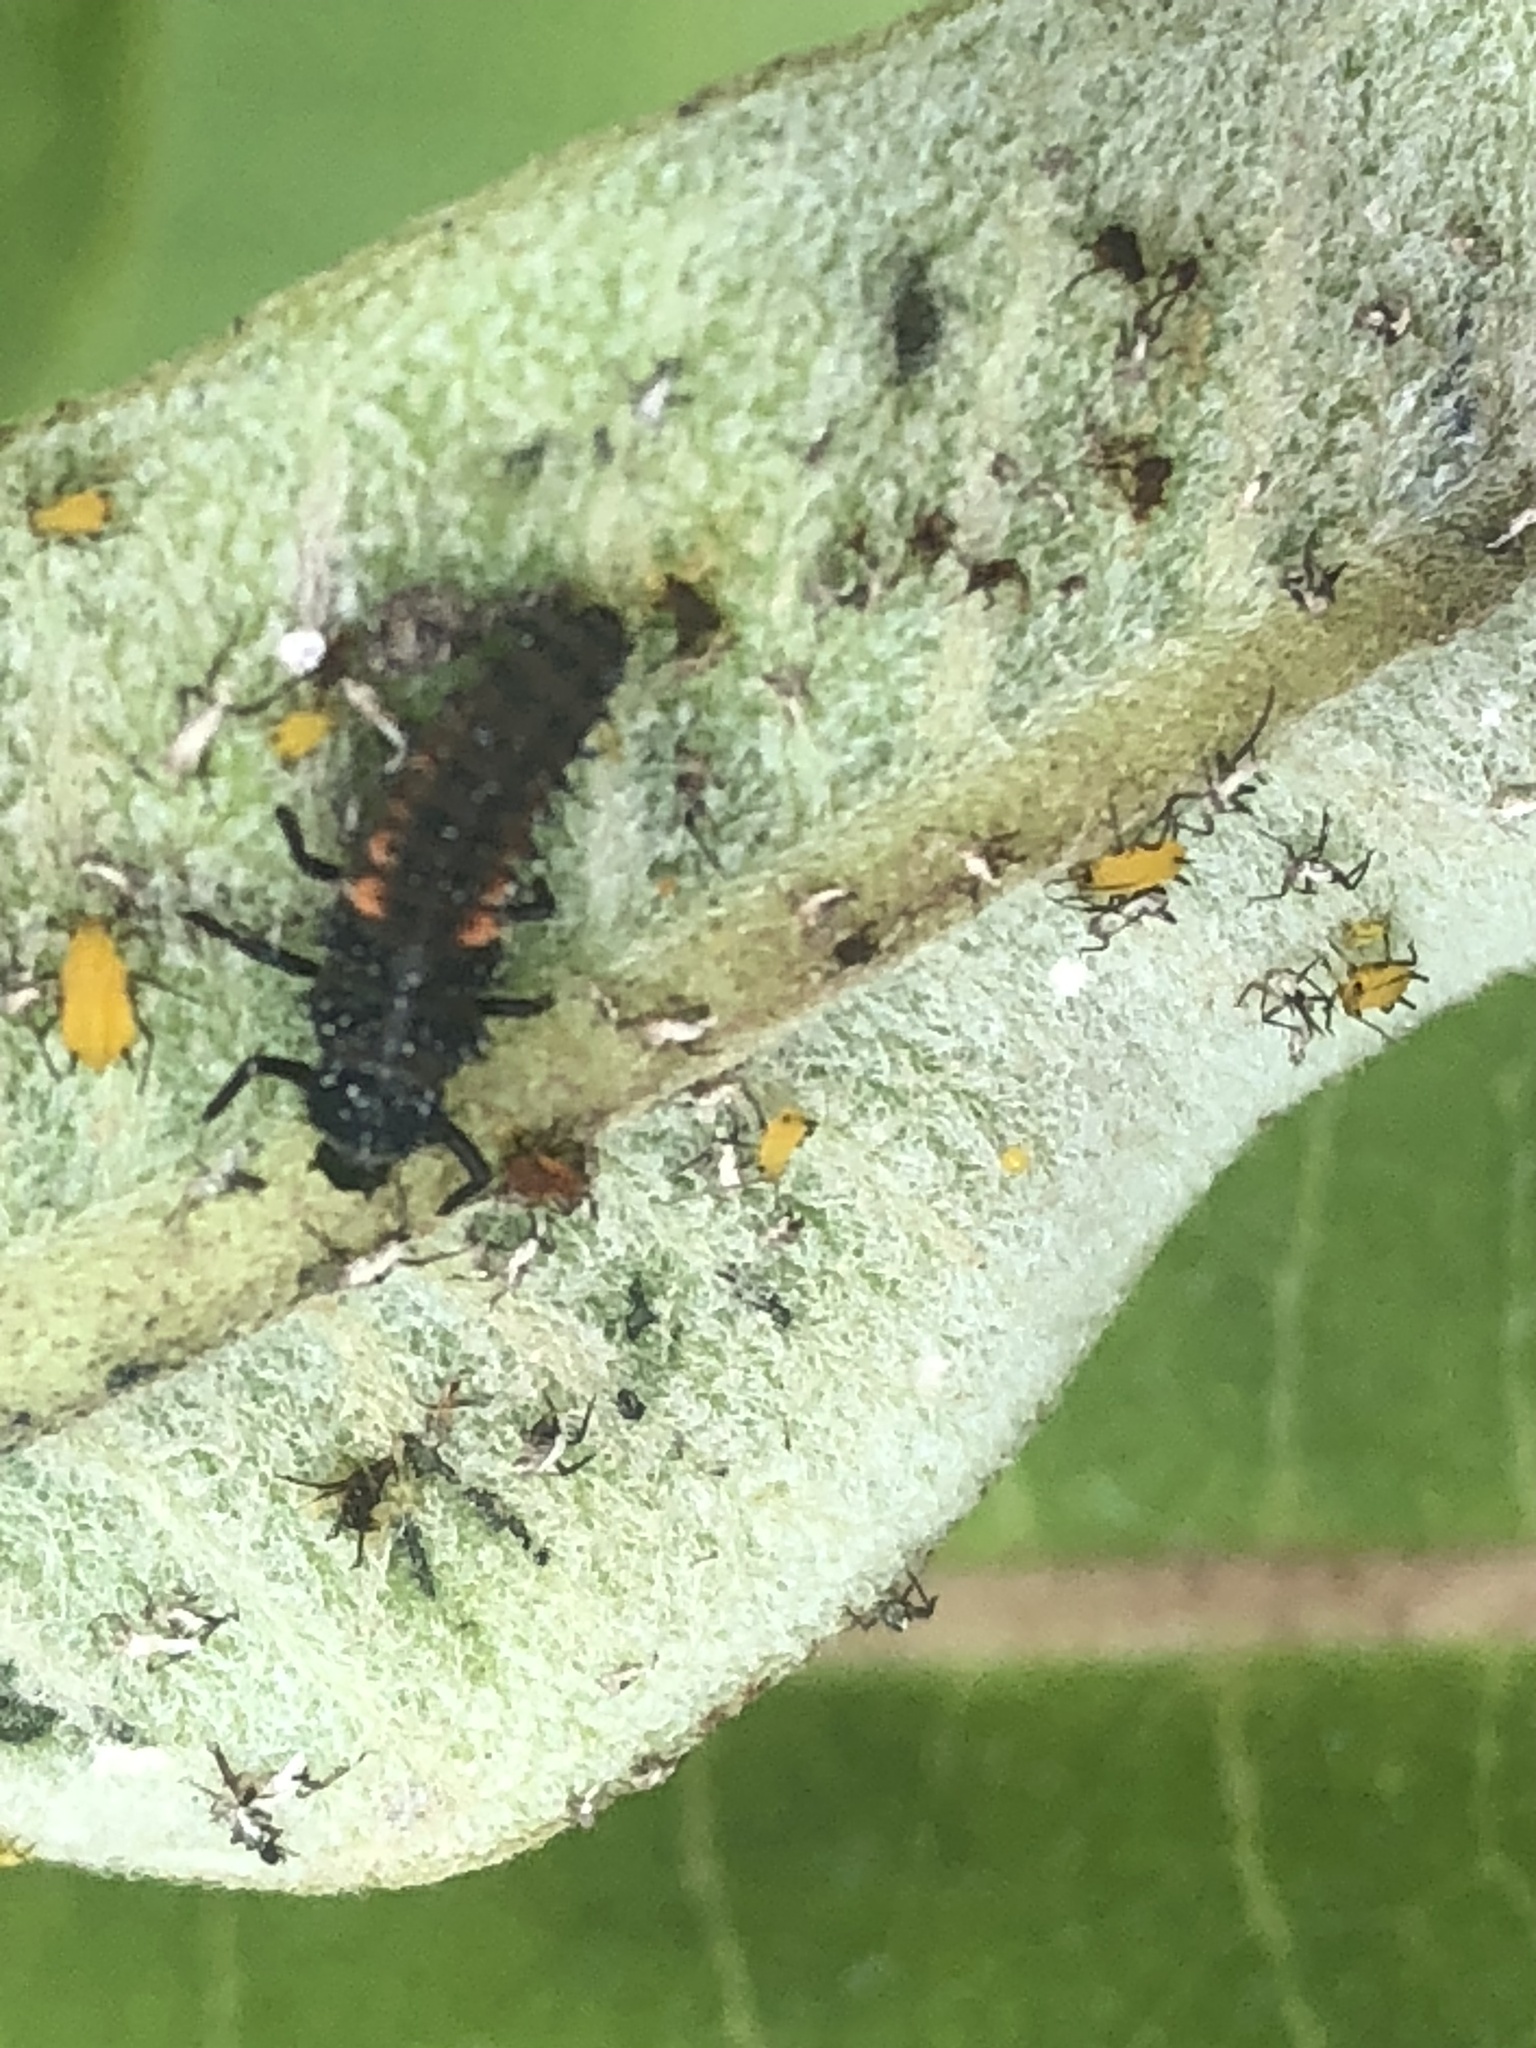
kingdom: Animalia
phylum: Arthropoda
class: Insecta
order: Coleoptera
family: Coccinellidae
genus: Harmonia
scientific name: Harmonia axyridis
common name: Harlequin ladybird
